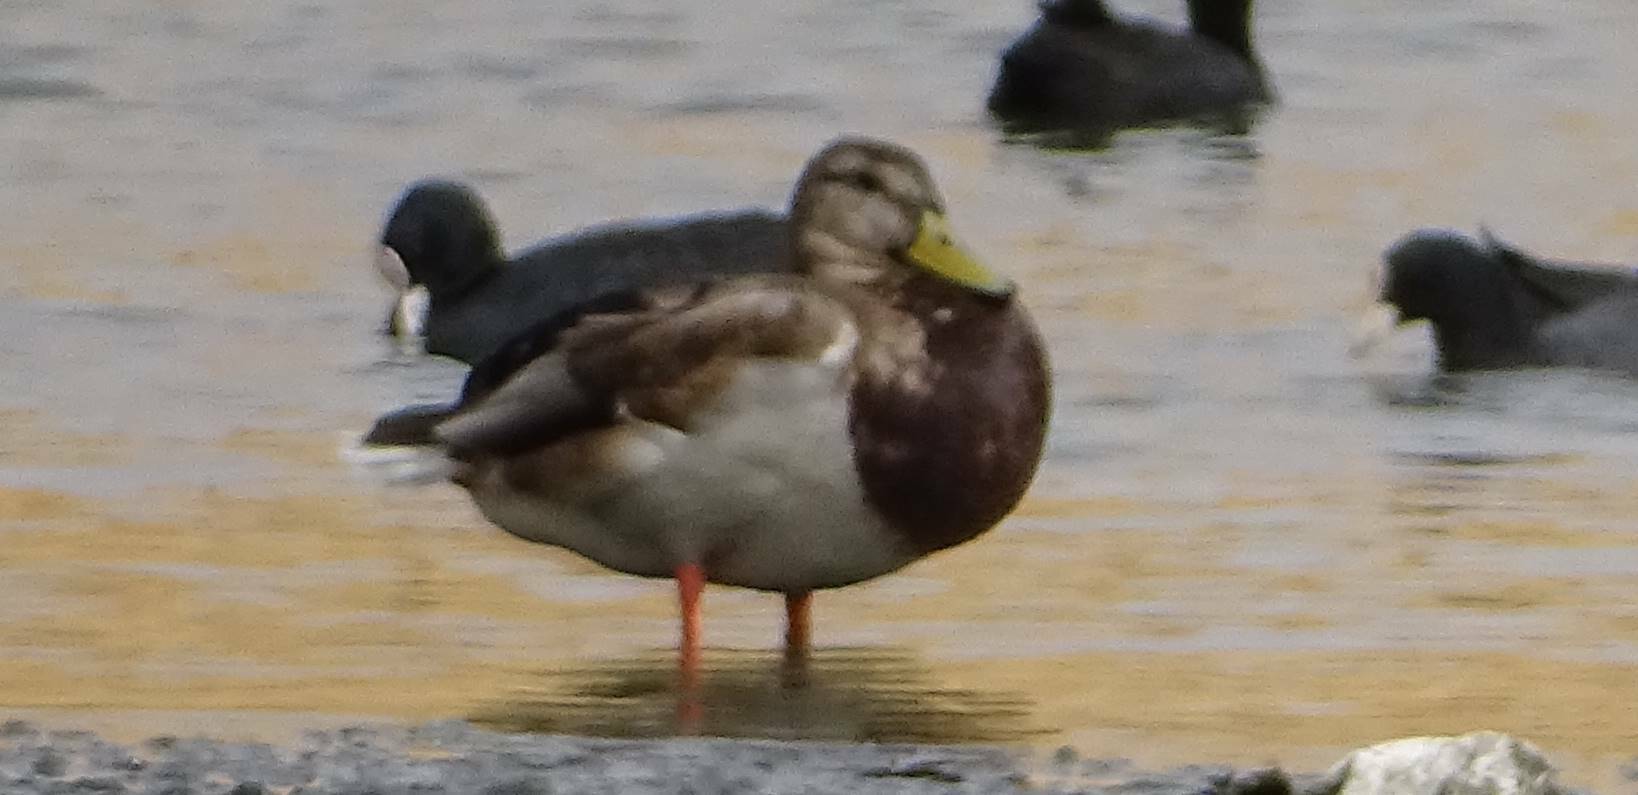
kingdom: Animalia
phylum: Chordata
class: Aves
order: Anseriformes
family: Anatidae
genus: Anas
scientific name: Anas platyrhynchos
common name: Mallard
